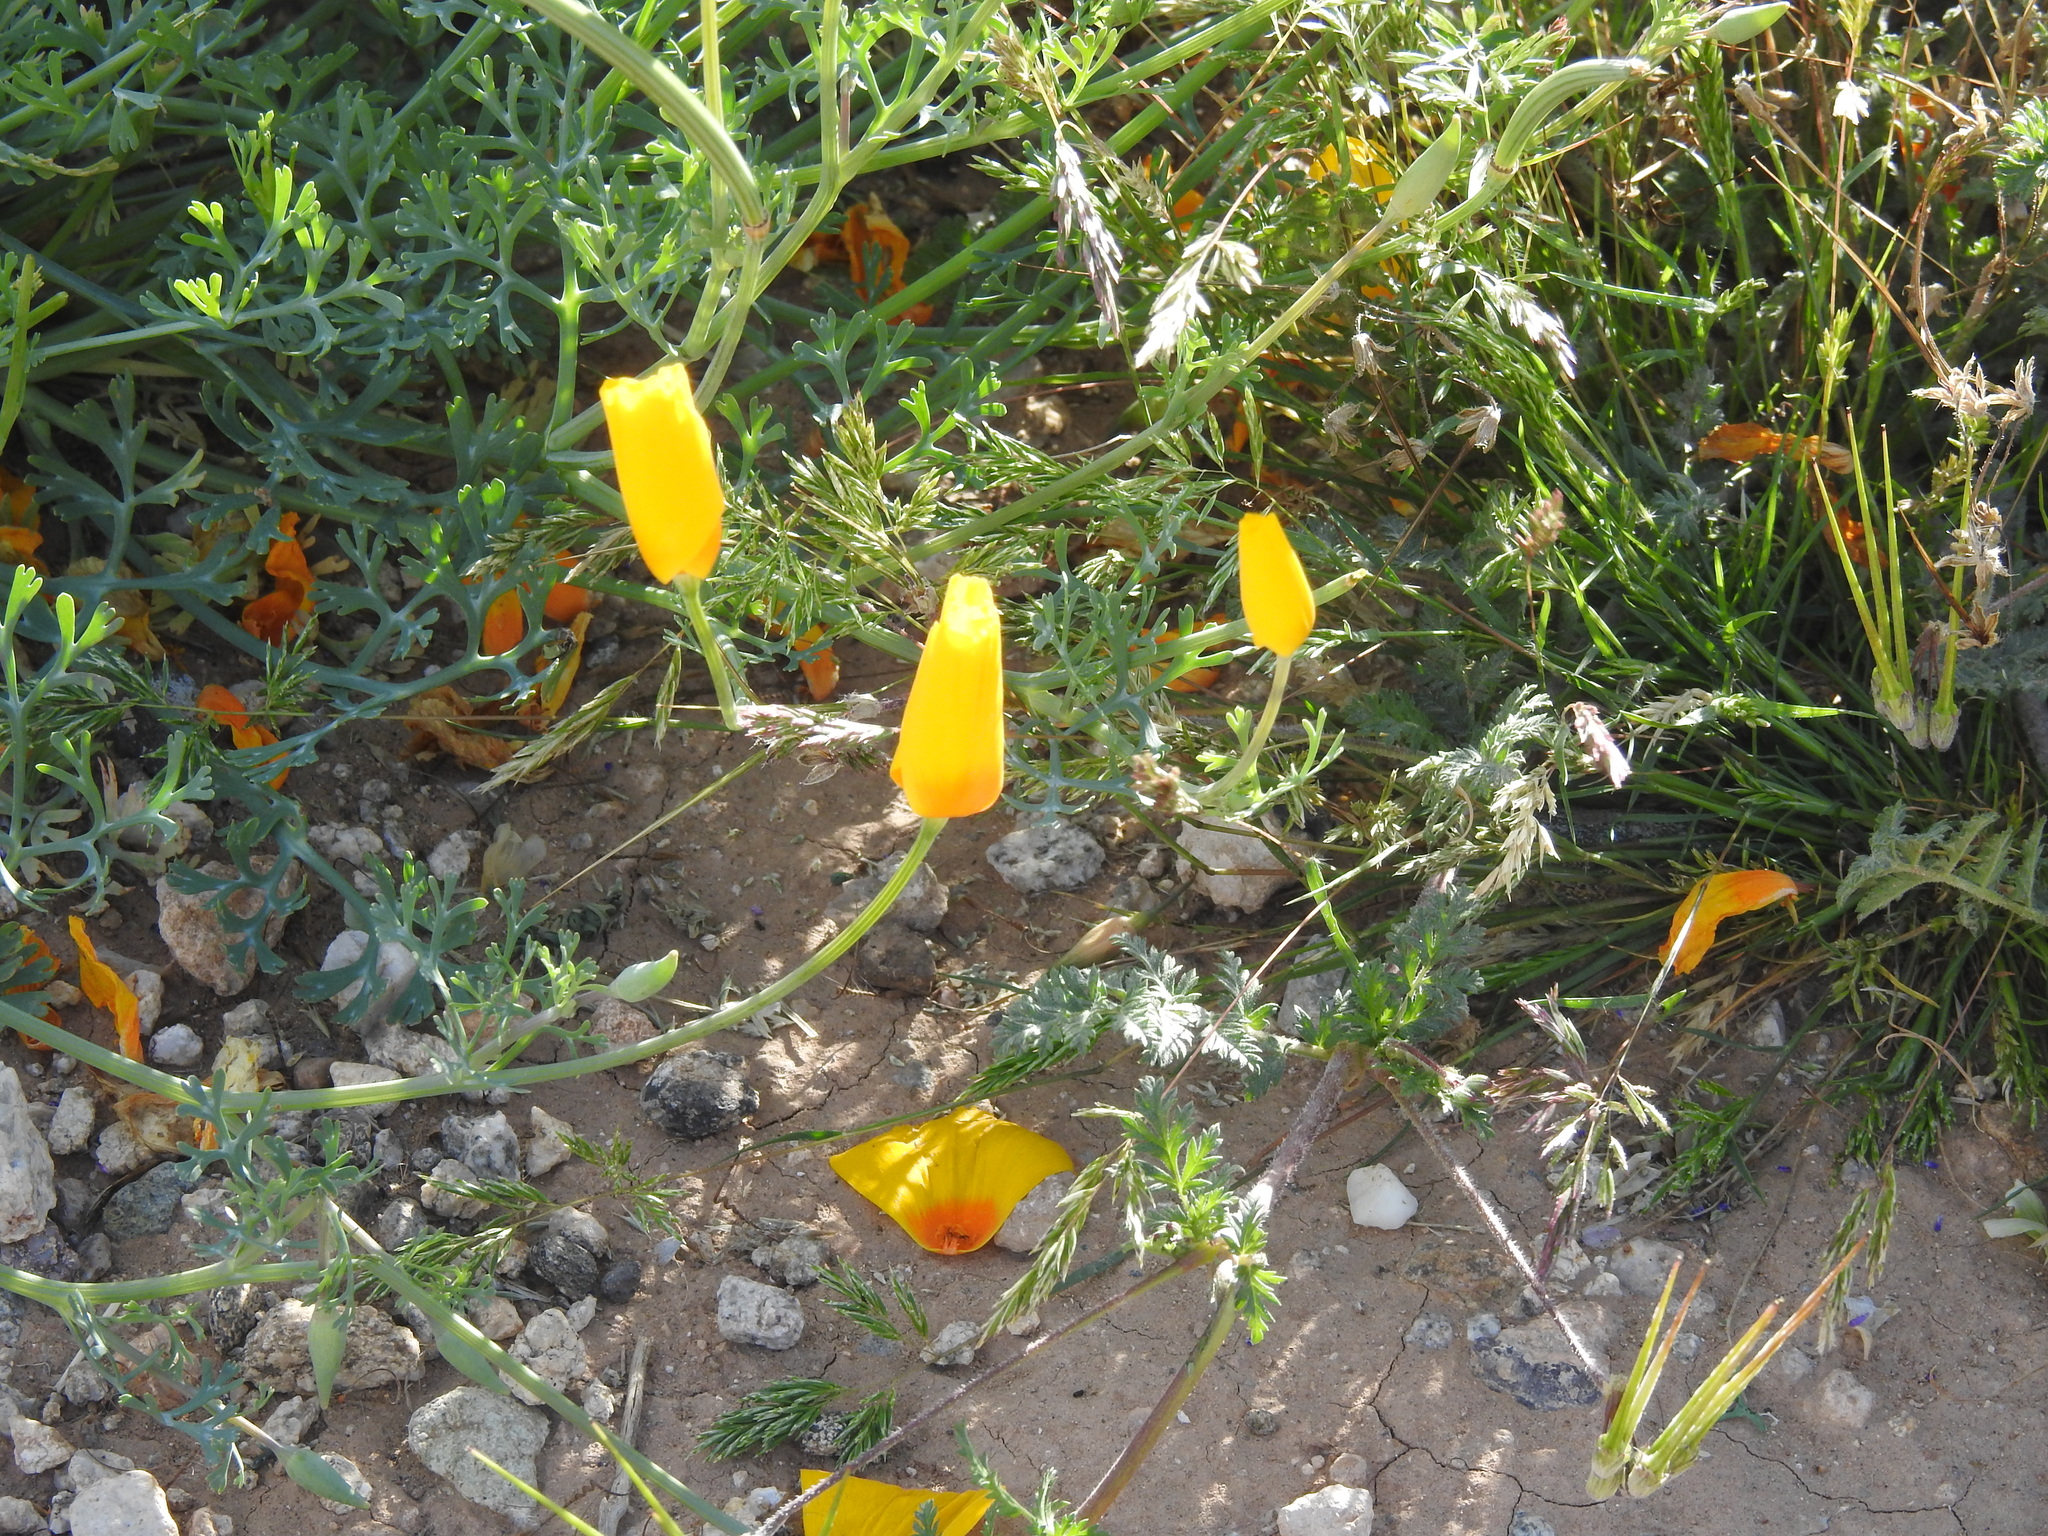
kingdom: Plantae
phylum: Tracheophyta
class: Magnoliopsida
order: Ranunculales
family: Papaveraceae
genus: Eschscholzia
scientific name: Eschscholzia californica
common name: California poppy
